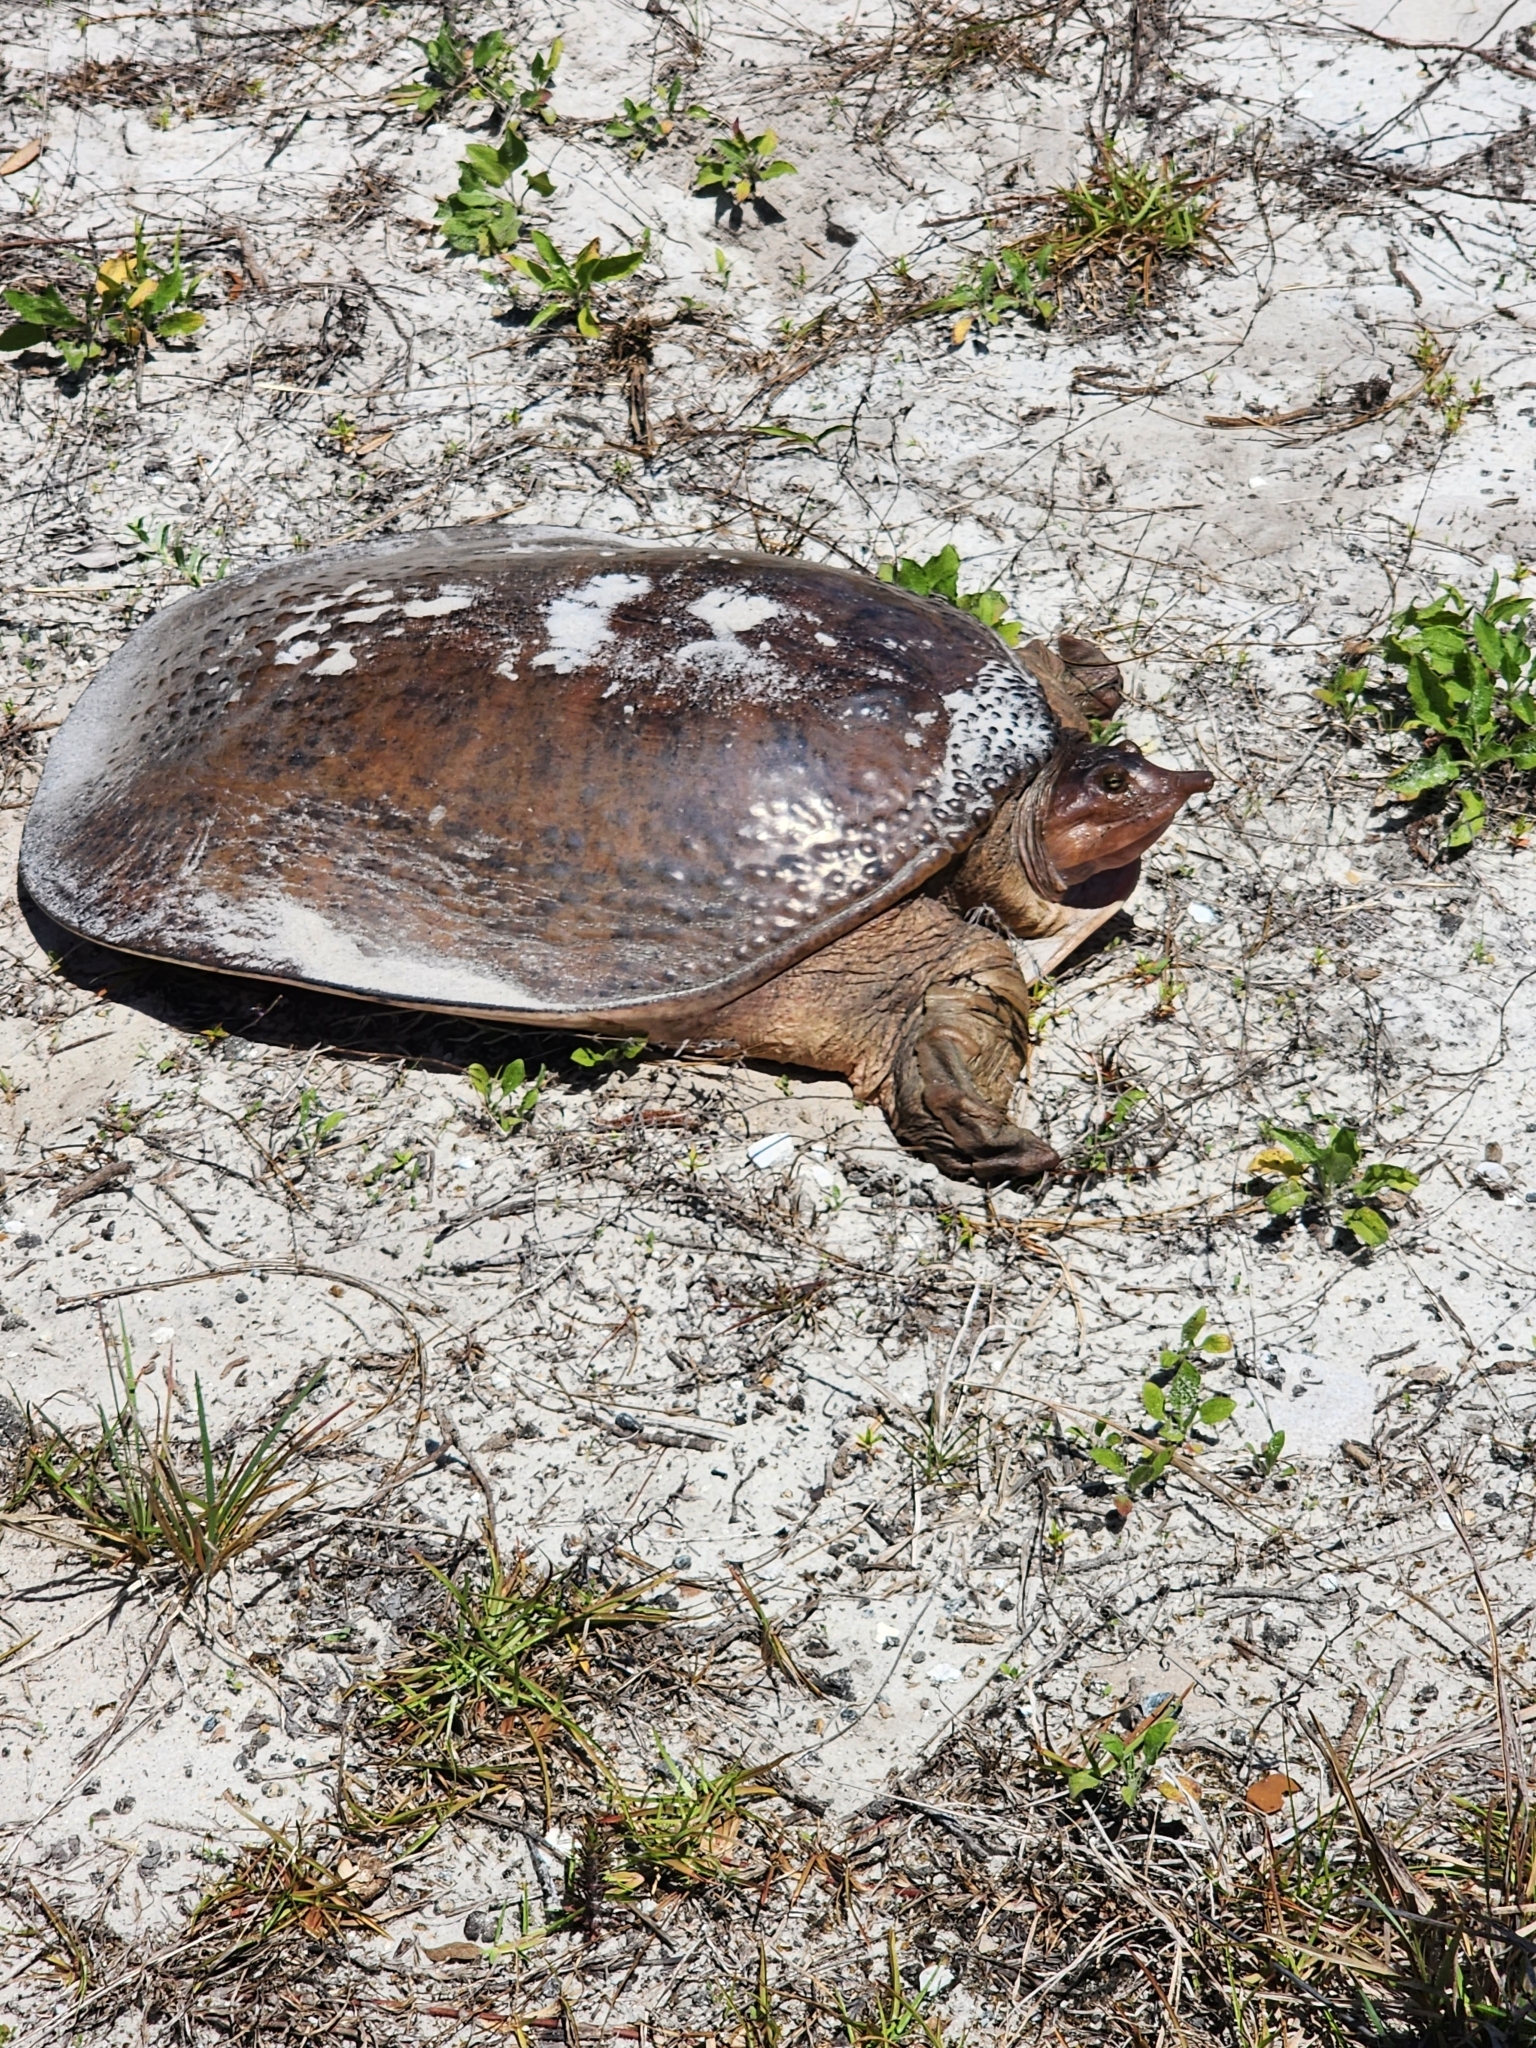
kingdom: Animalia
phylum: Chordata
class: Testudines
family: Trionychidae
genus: Apalone
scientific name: Apalone ferox
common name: Florida softshell turtle
